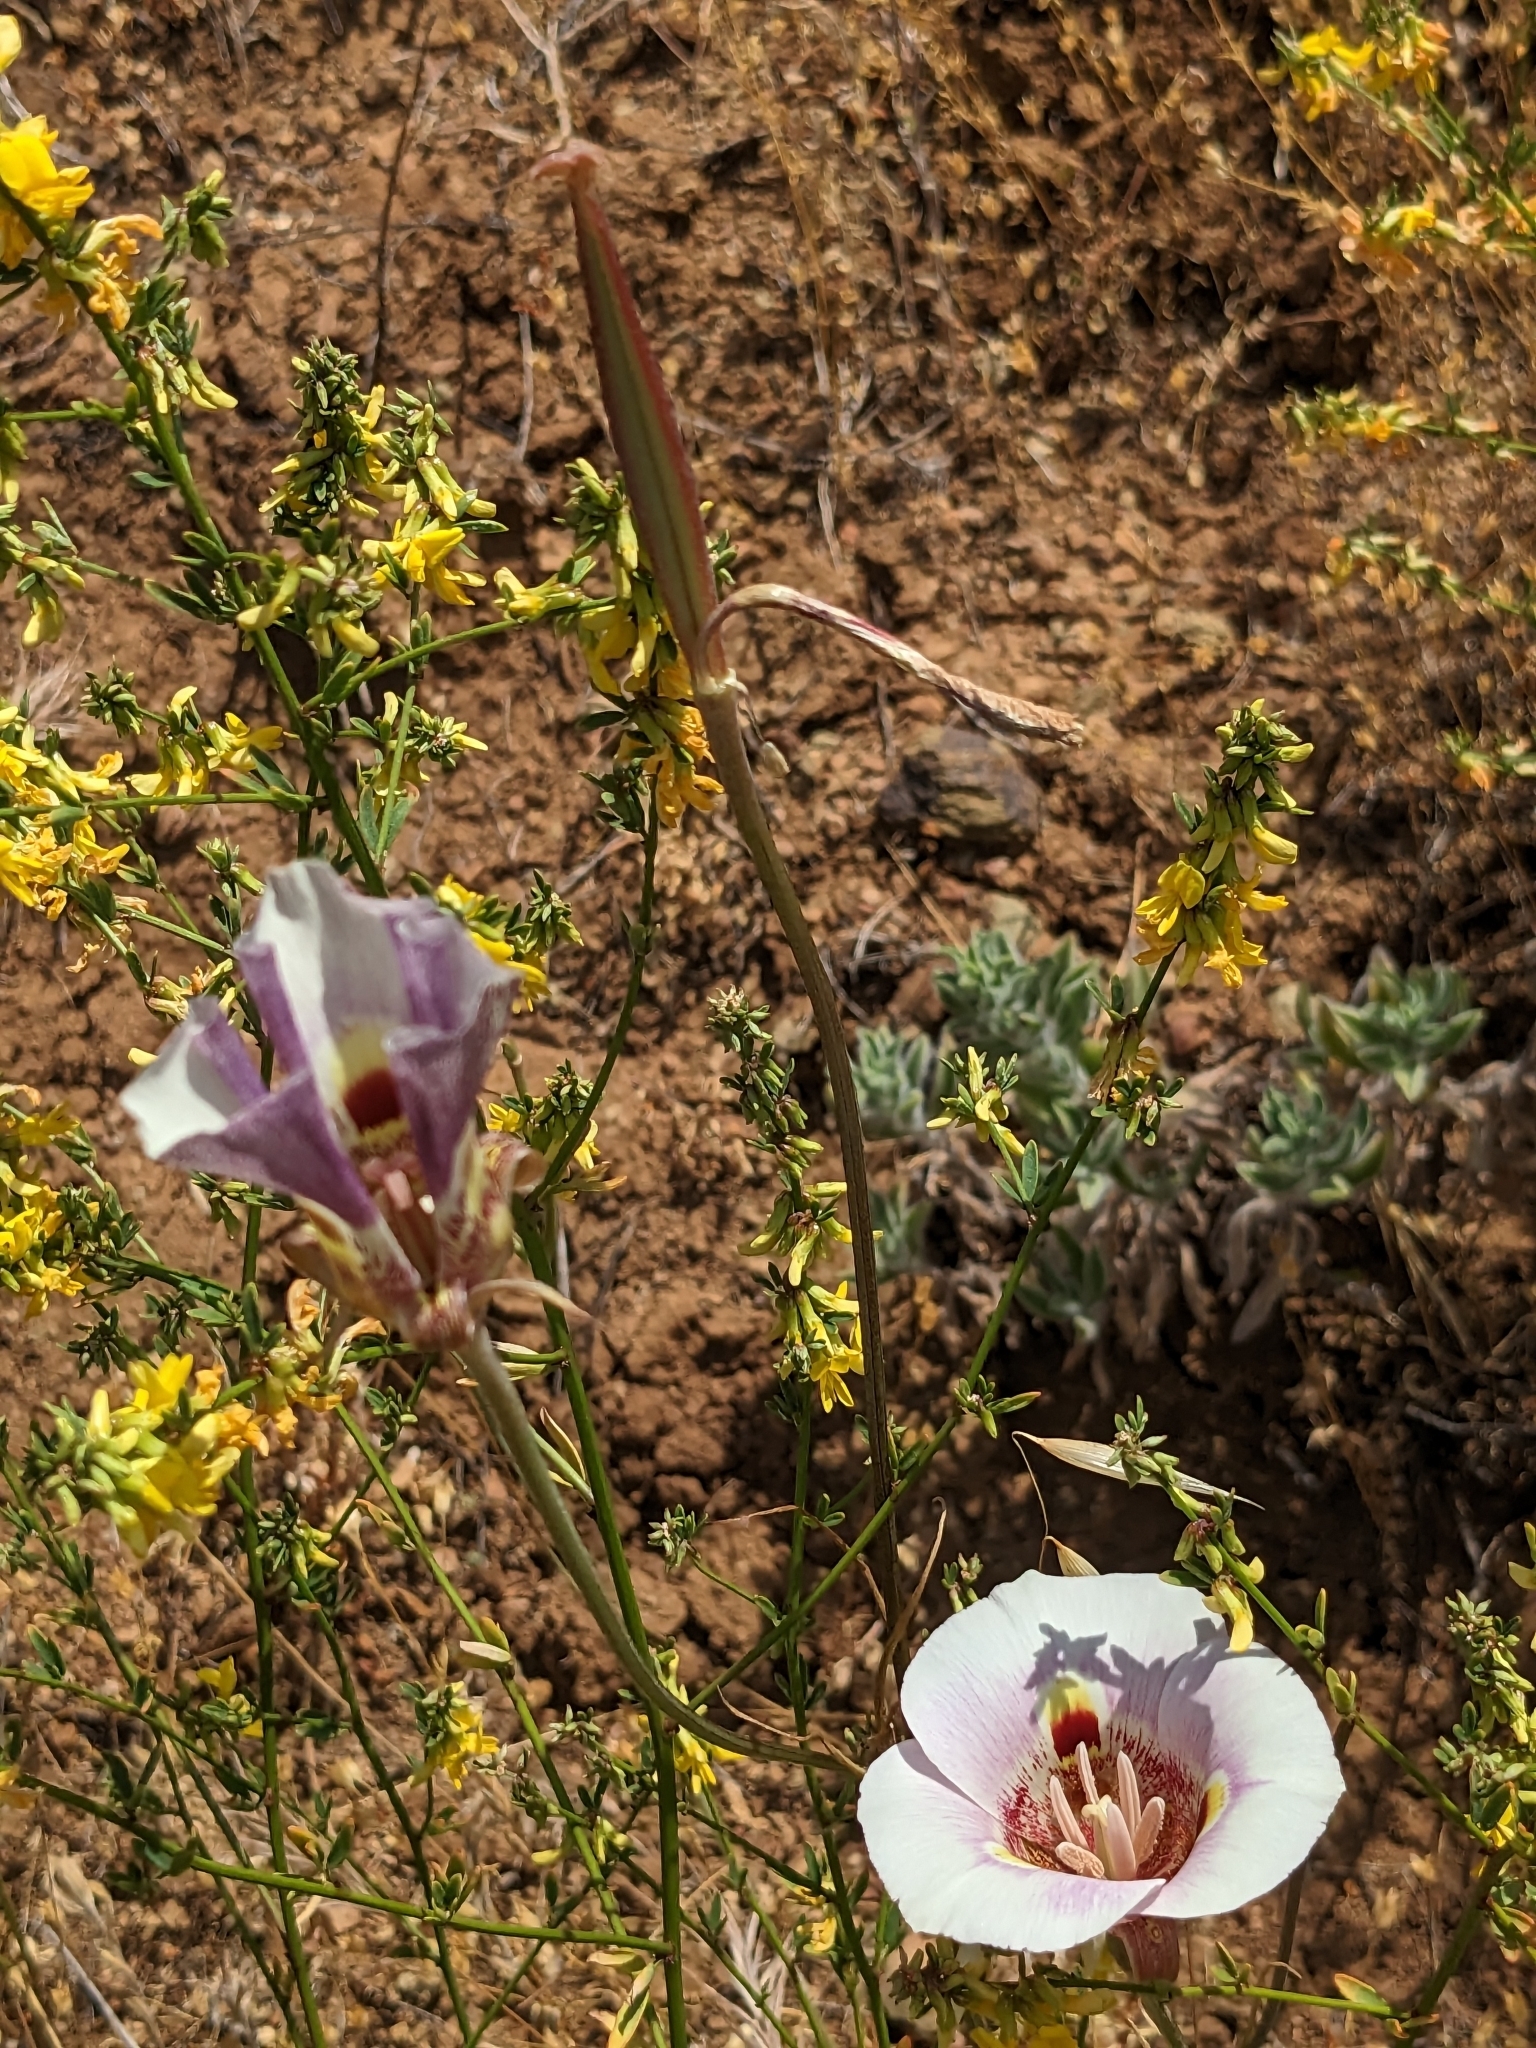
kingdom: Plantae
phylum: Tracheophyta
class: Liliopsida
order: Liliales
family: Liliaceae
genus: Calochortus
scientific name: Calochortus argillosus
